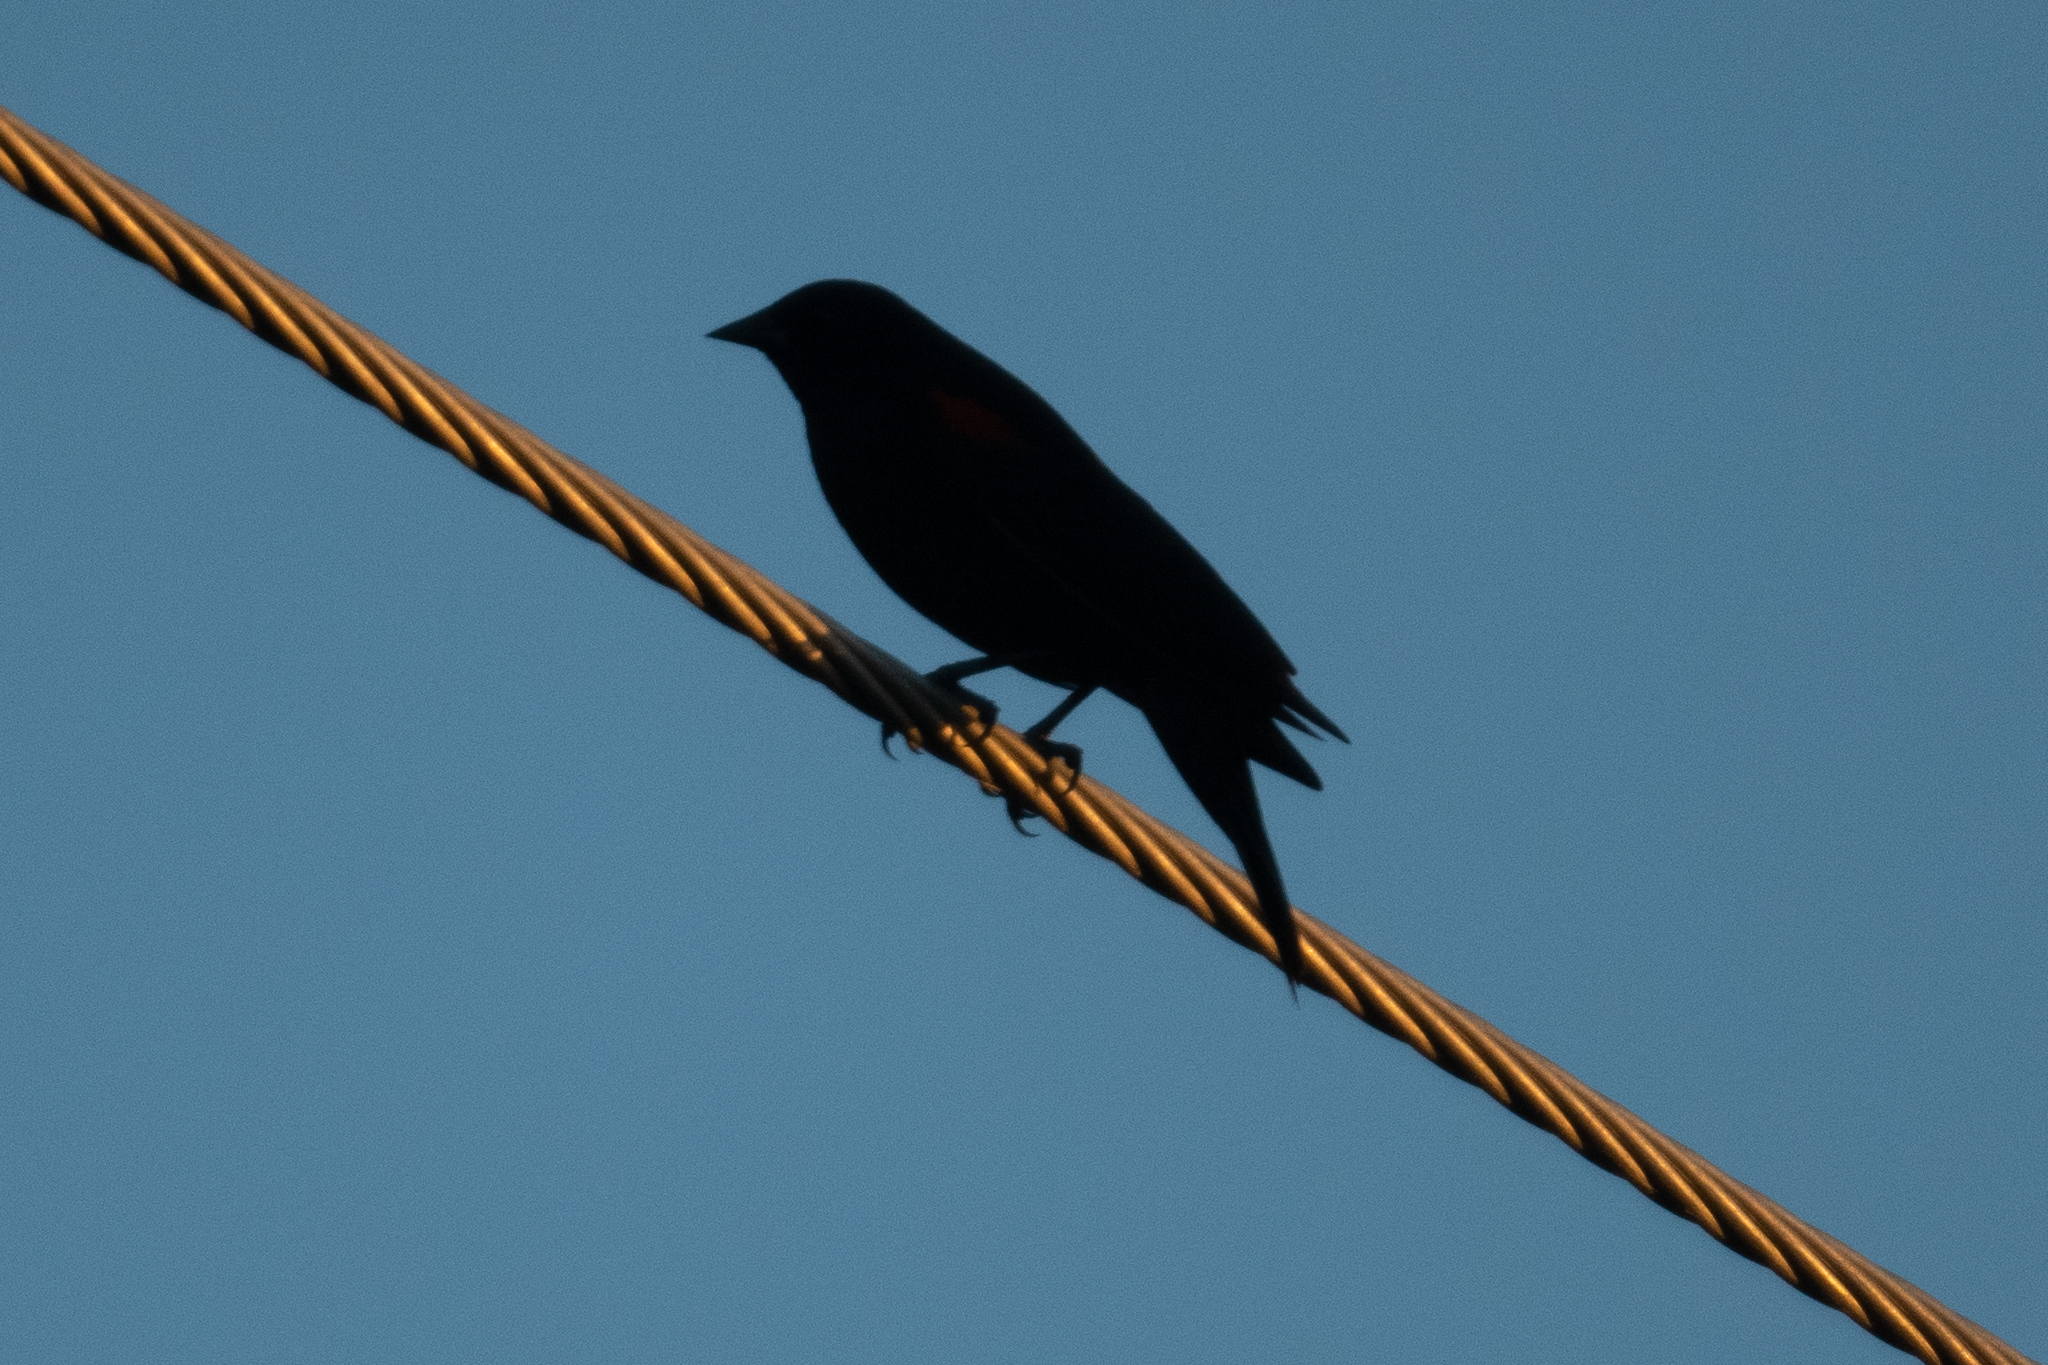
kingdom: Animalia
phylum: Chordata
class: Aves
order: Passeriformes
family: Icteridae
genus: Agelaius
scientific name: Agelaius phoeniceus
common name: Red-winged blackbird
